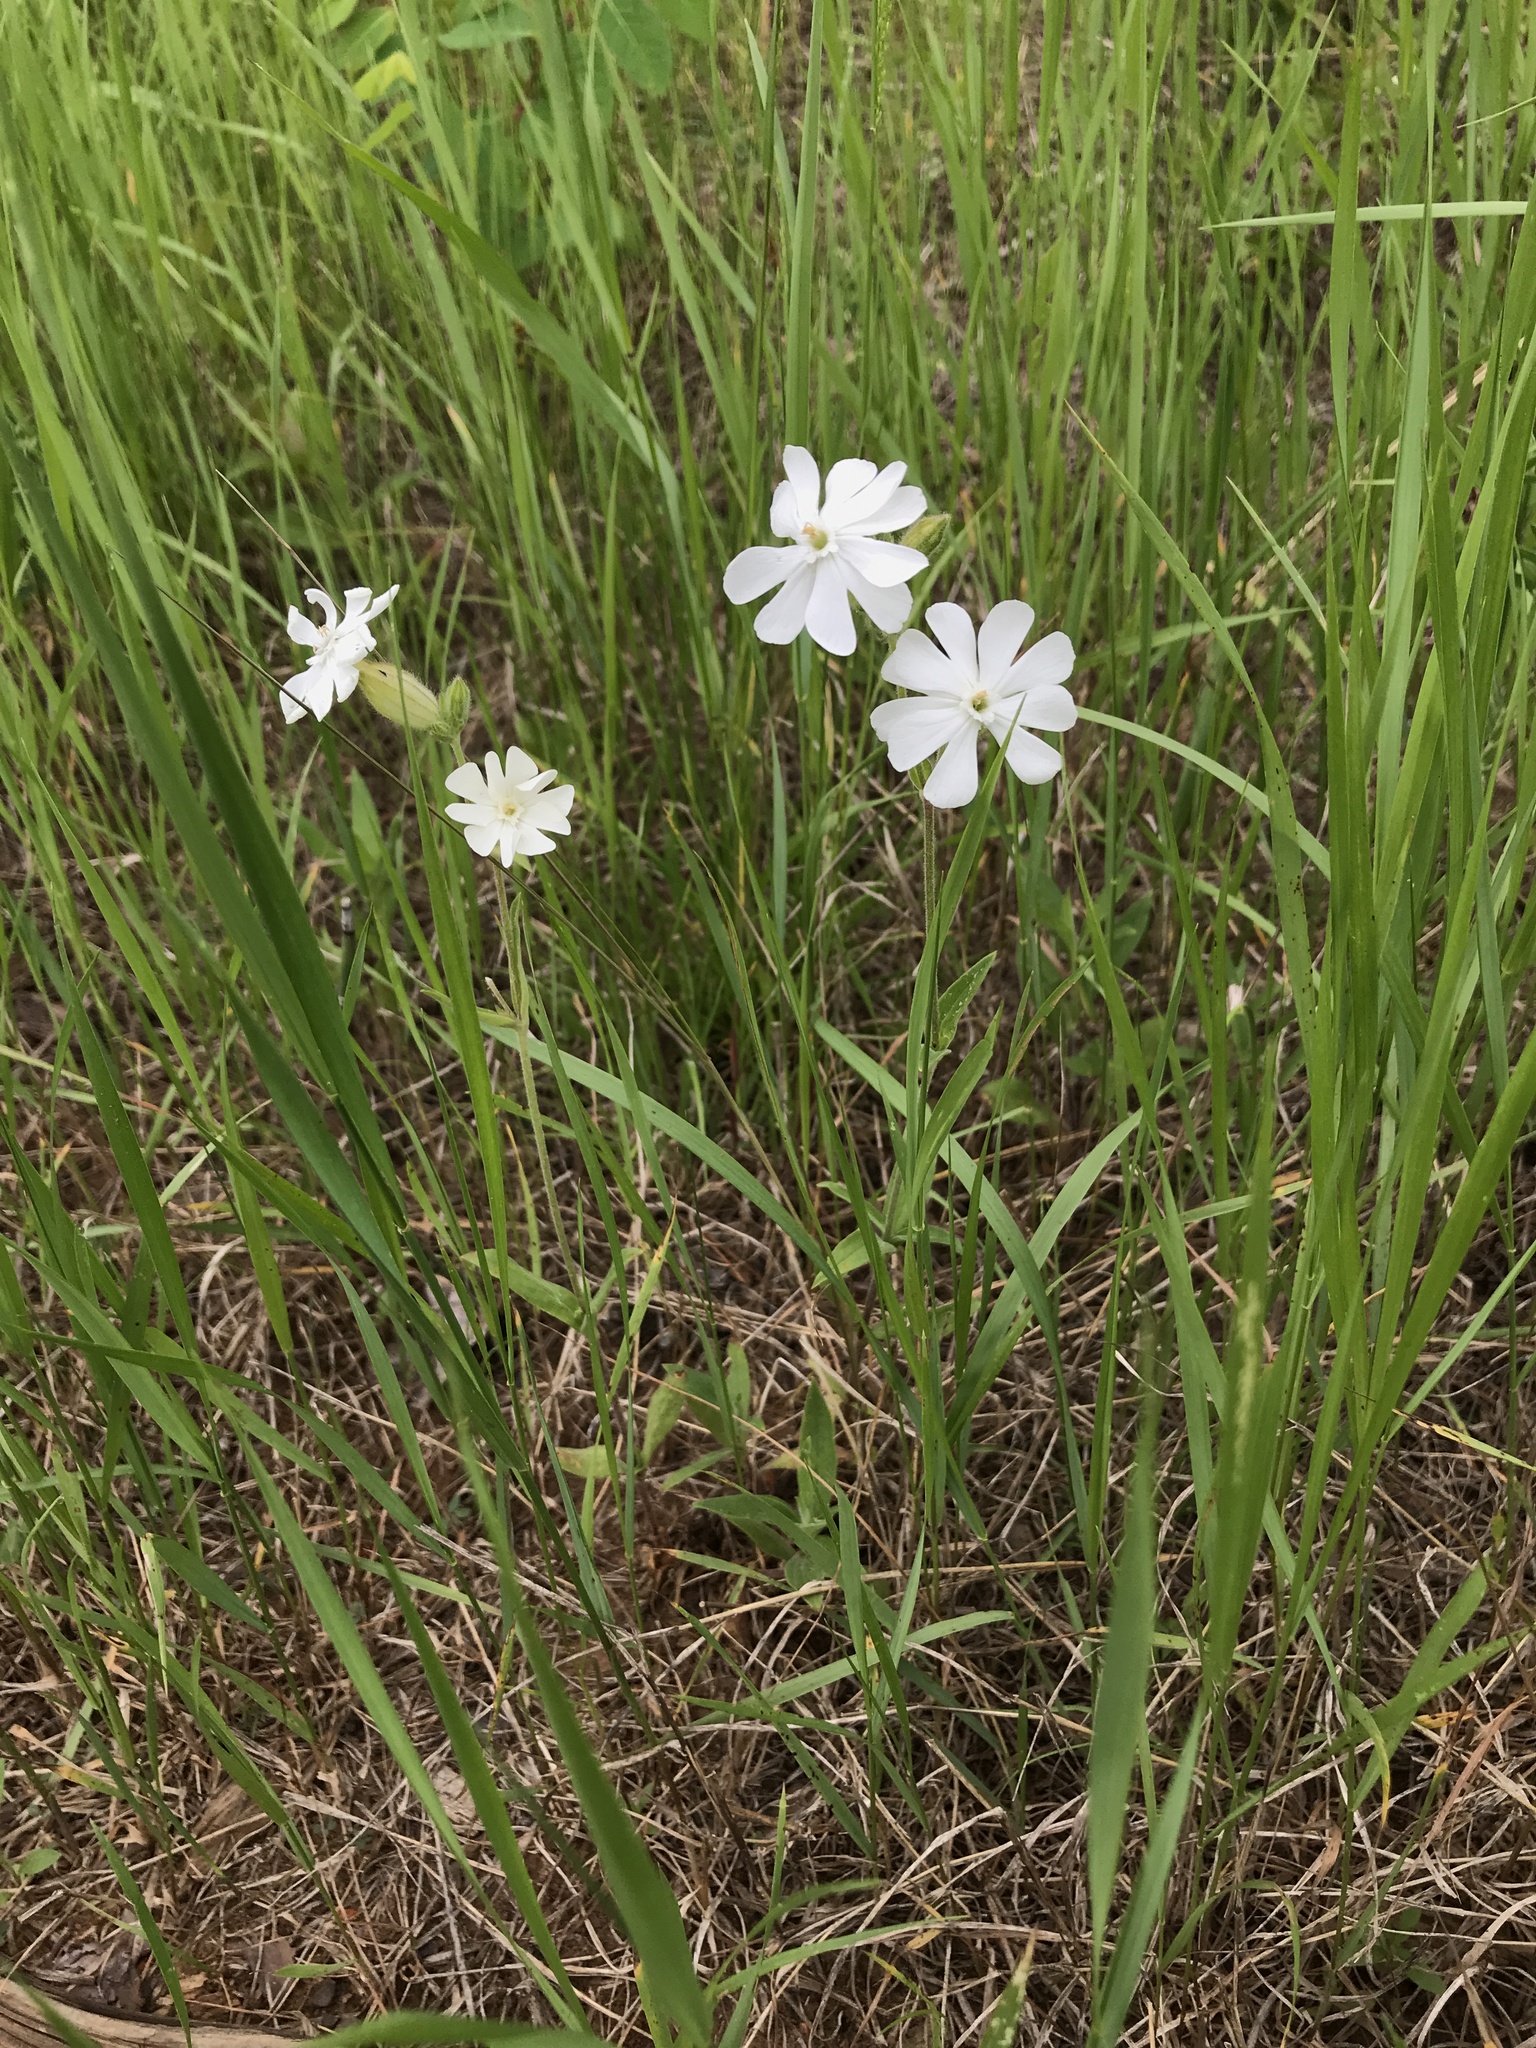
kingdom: Plantae
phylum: Tracheophyta
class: Magnoliopsida
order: Caryophyllales
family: Caryophyllaceae
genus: Silene
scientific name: Silene latifolia
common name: White campion
